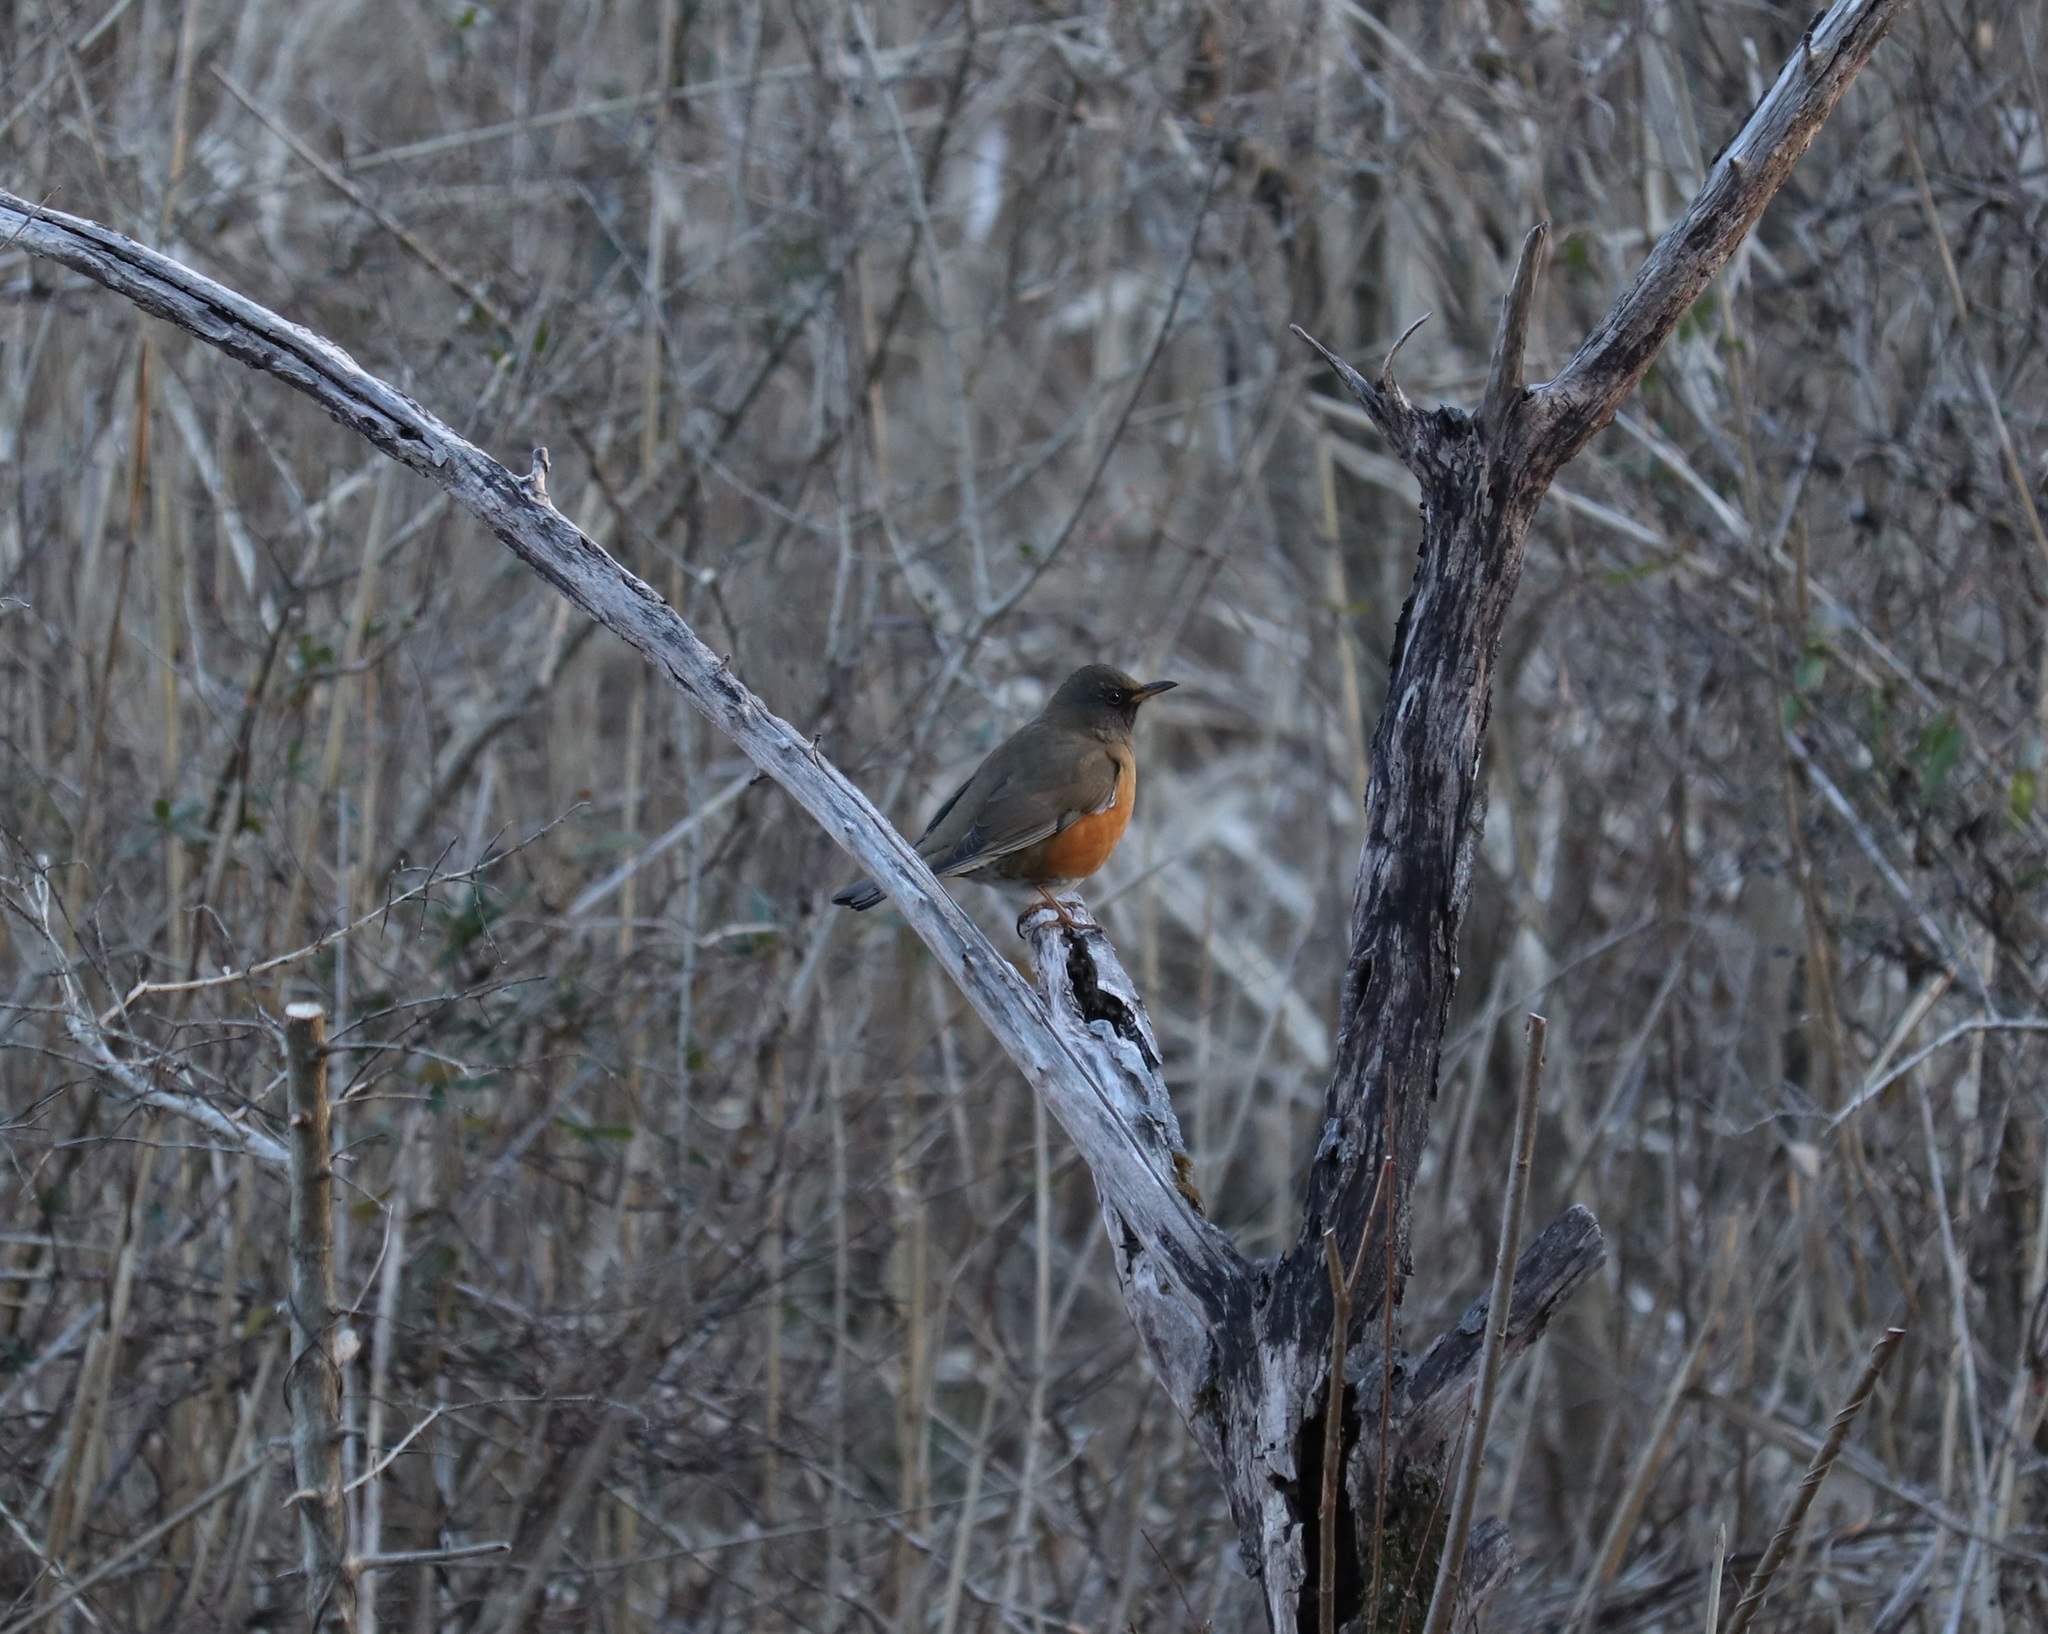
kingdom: Animalia
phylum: Chordata
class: Aves
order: Passeriformes
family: Turdidae
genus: Turdus
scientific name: Turdus chrysolaus
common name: Brown-headed thrush
